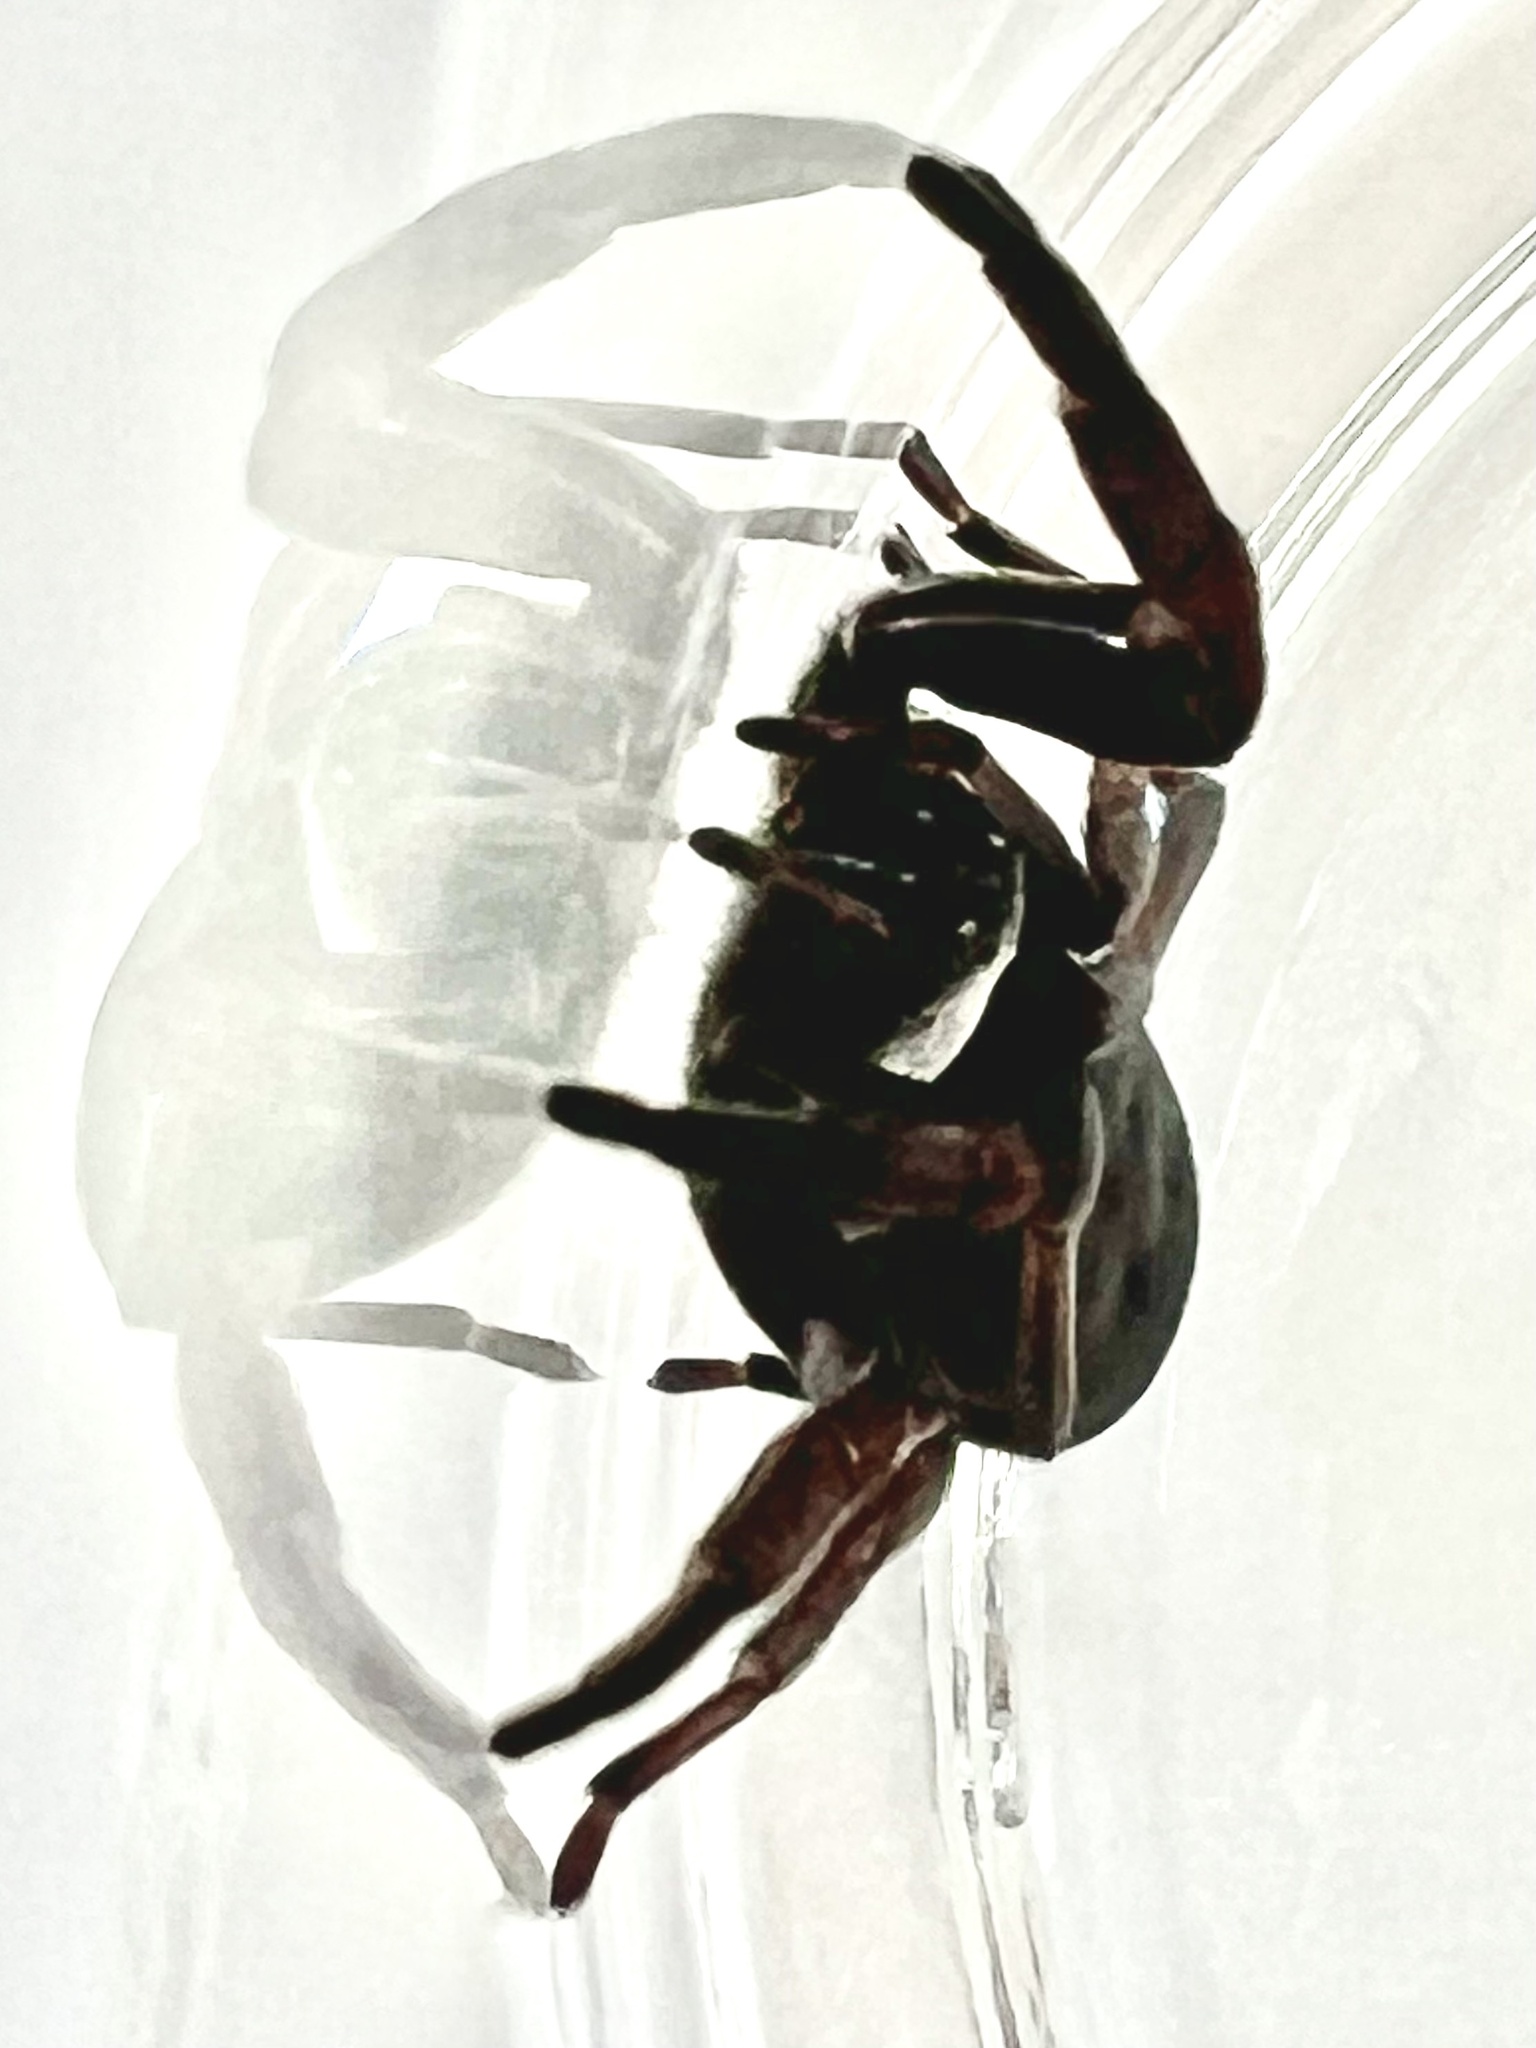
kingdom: Animalia
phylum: Arthropoda
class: Arachnida
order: Araneae
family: Lamponidae
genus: Lampona
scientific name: Lampona cylindrata
